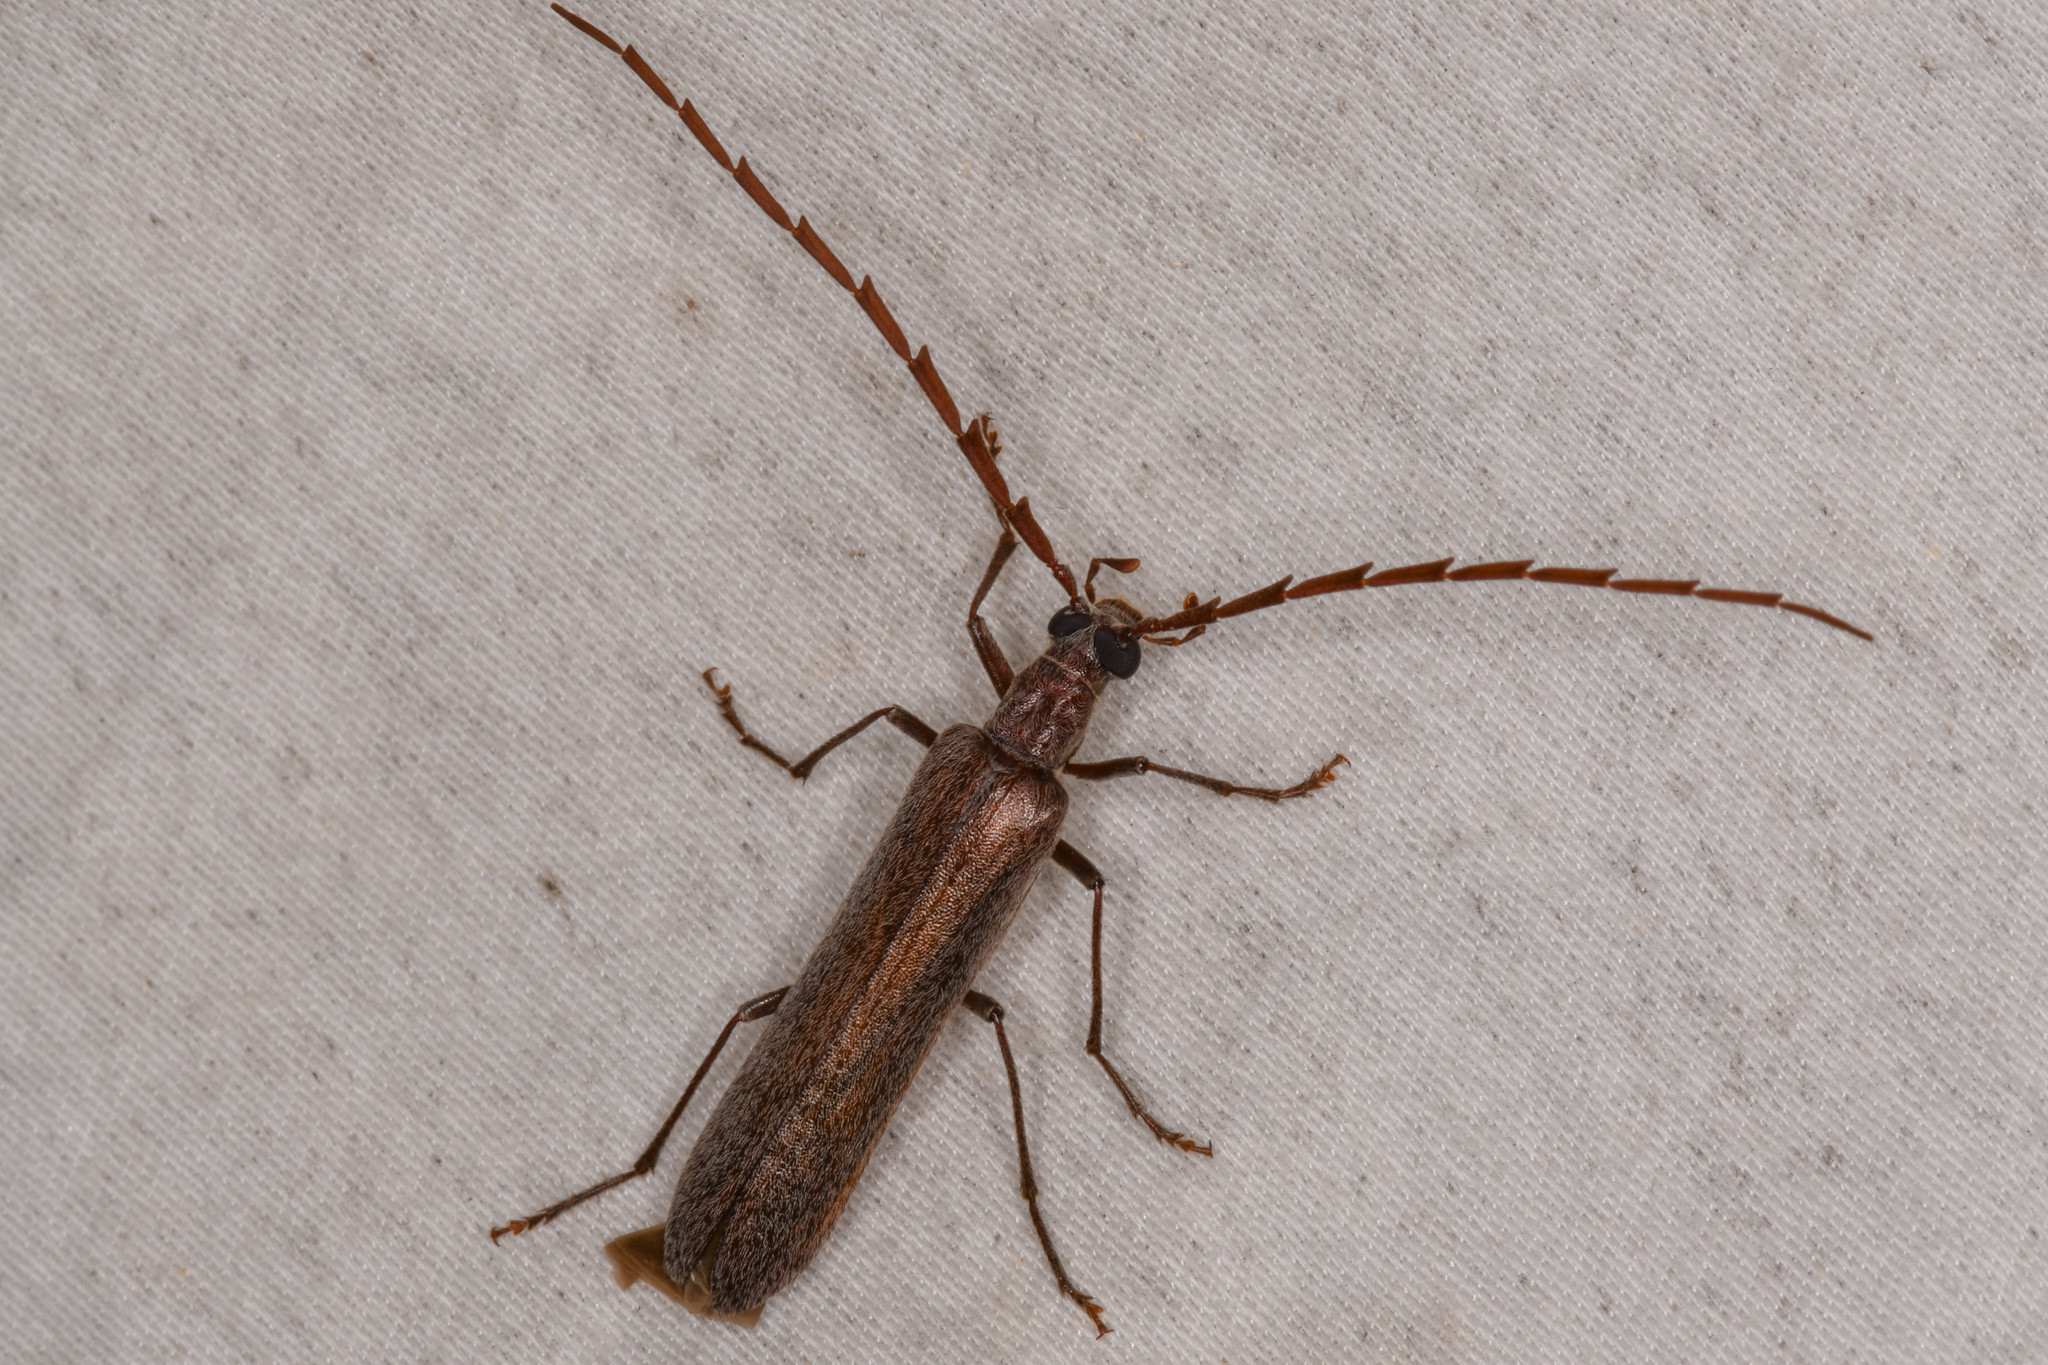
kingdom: Animalia
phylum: Arthropoda
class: Insecta
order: Coleoptera
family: Oedemeridae
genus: Calopus
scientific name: Calopus angustus
